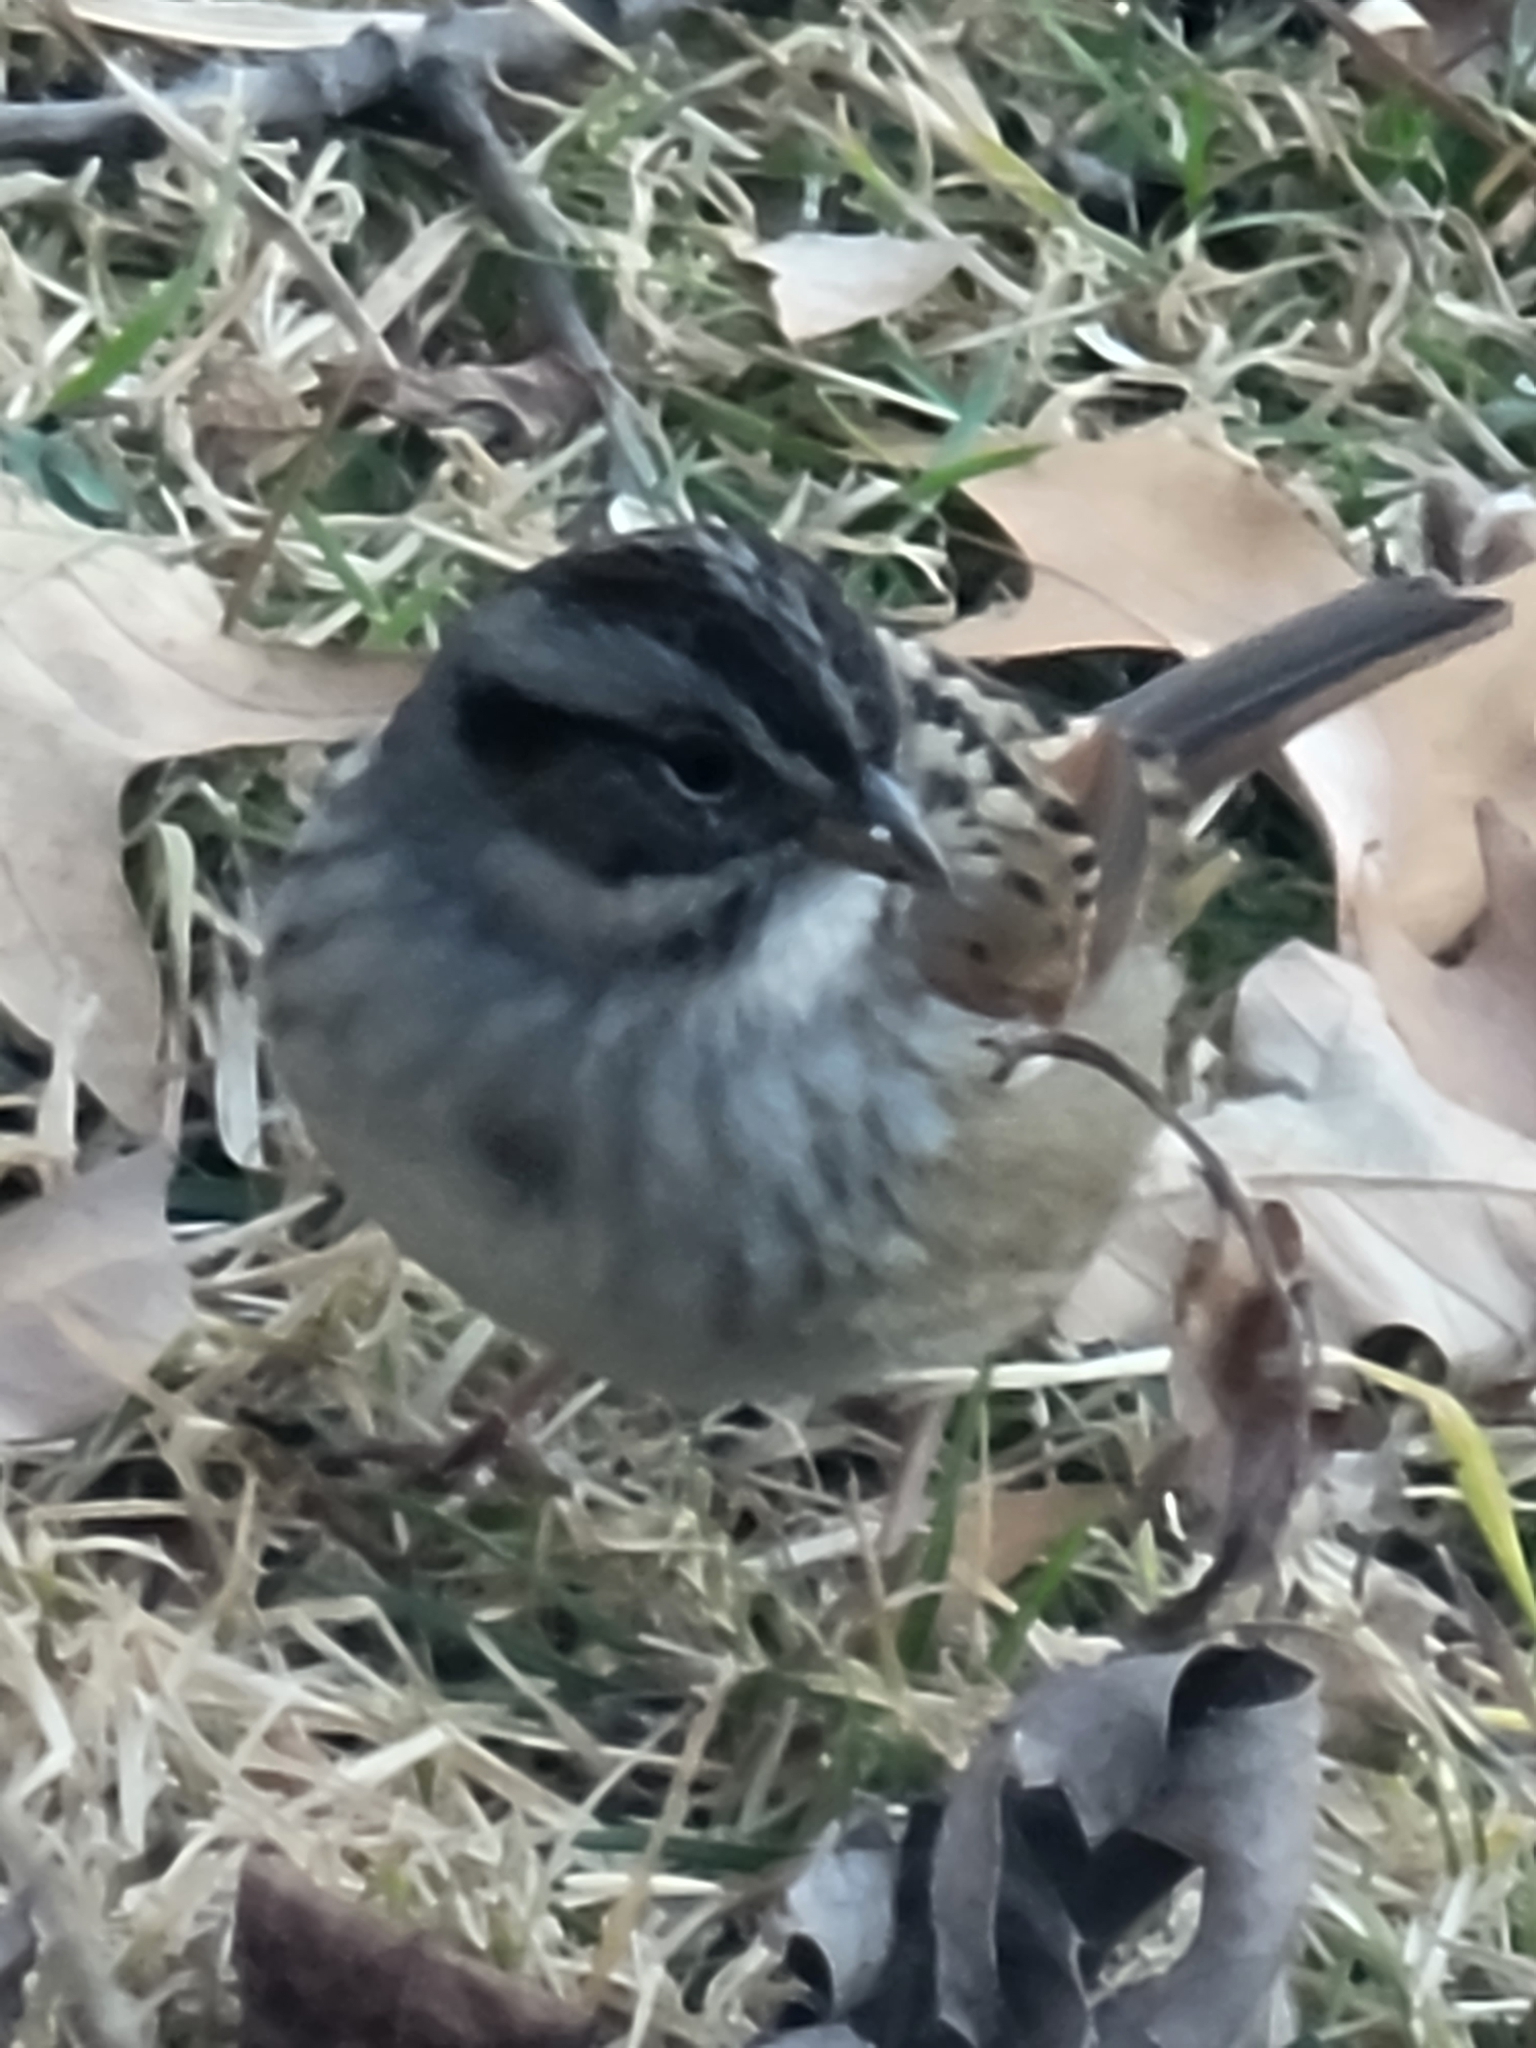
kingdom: Animalia
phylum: Chordata
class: Aves
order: Passeriformes
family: Passerellidae
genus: Melospiza
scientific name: Melospiza georgiana
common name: Swamp sparrow
